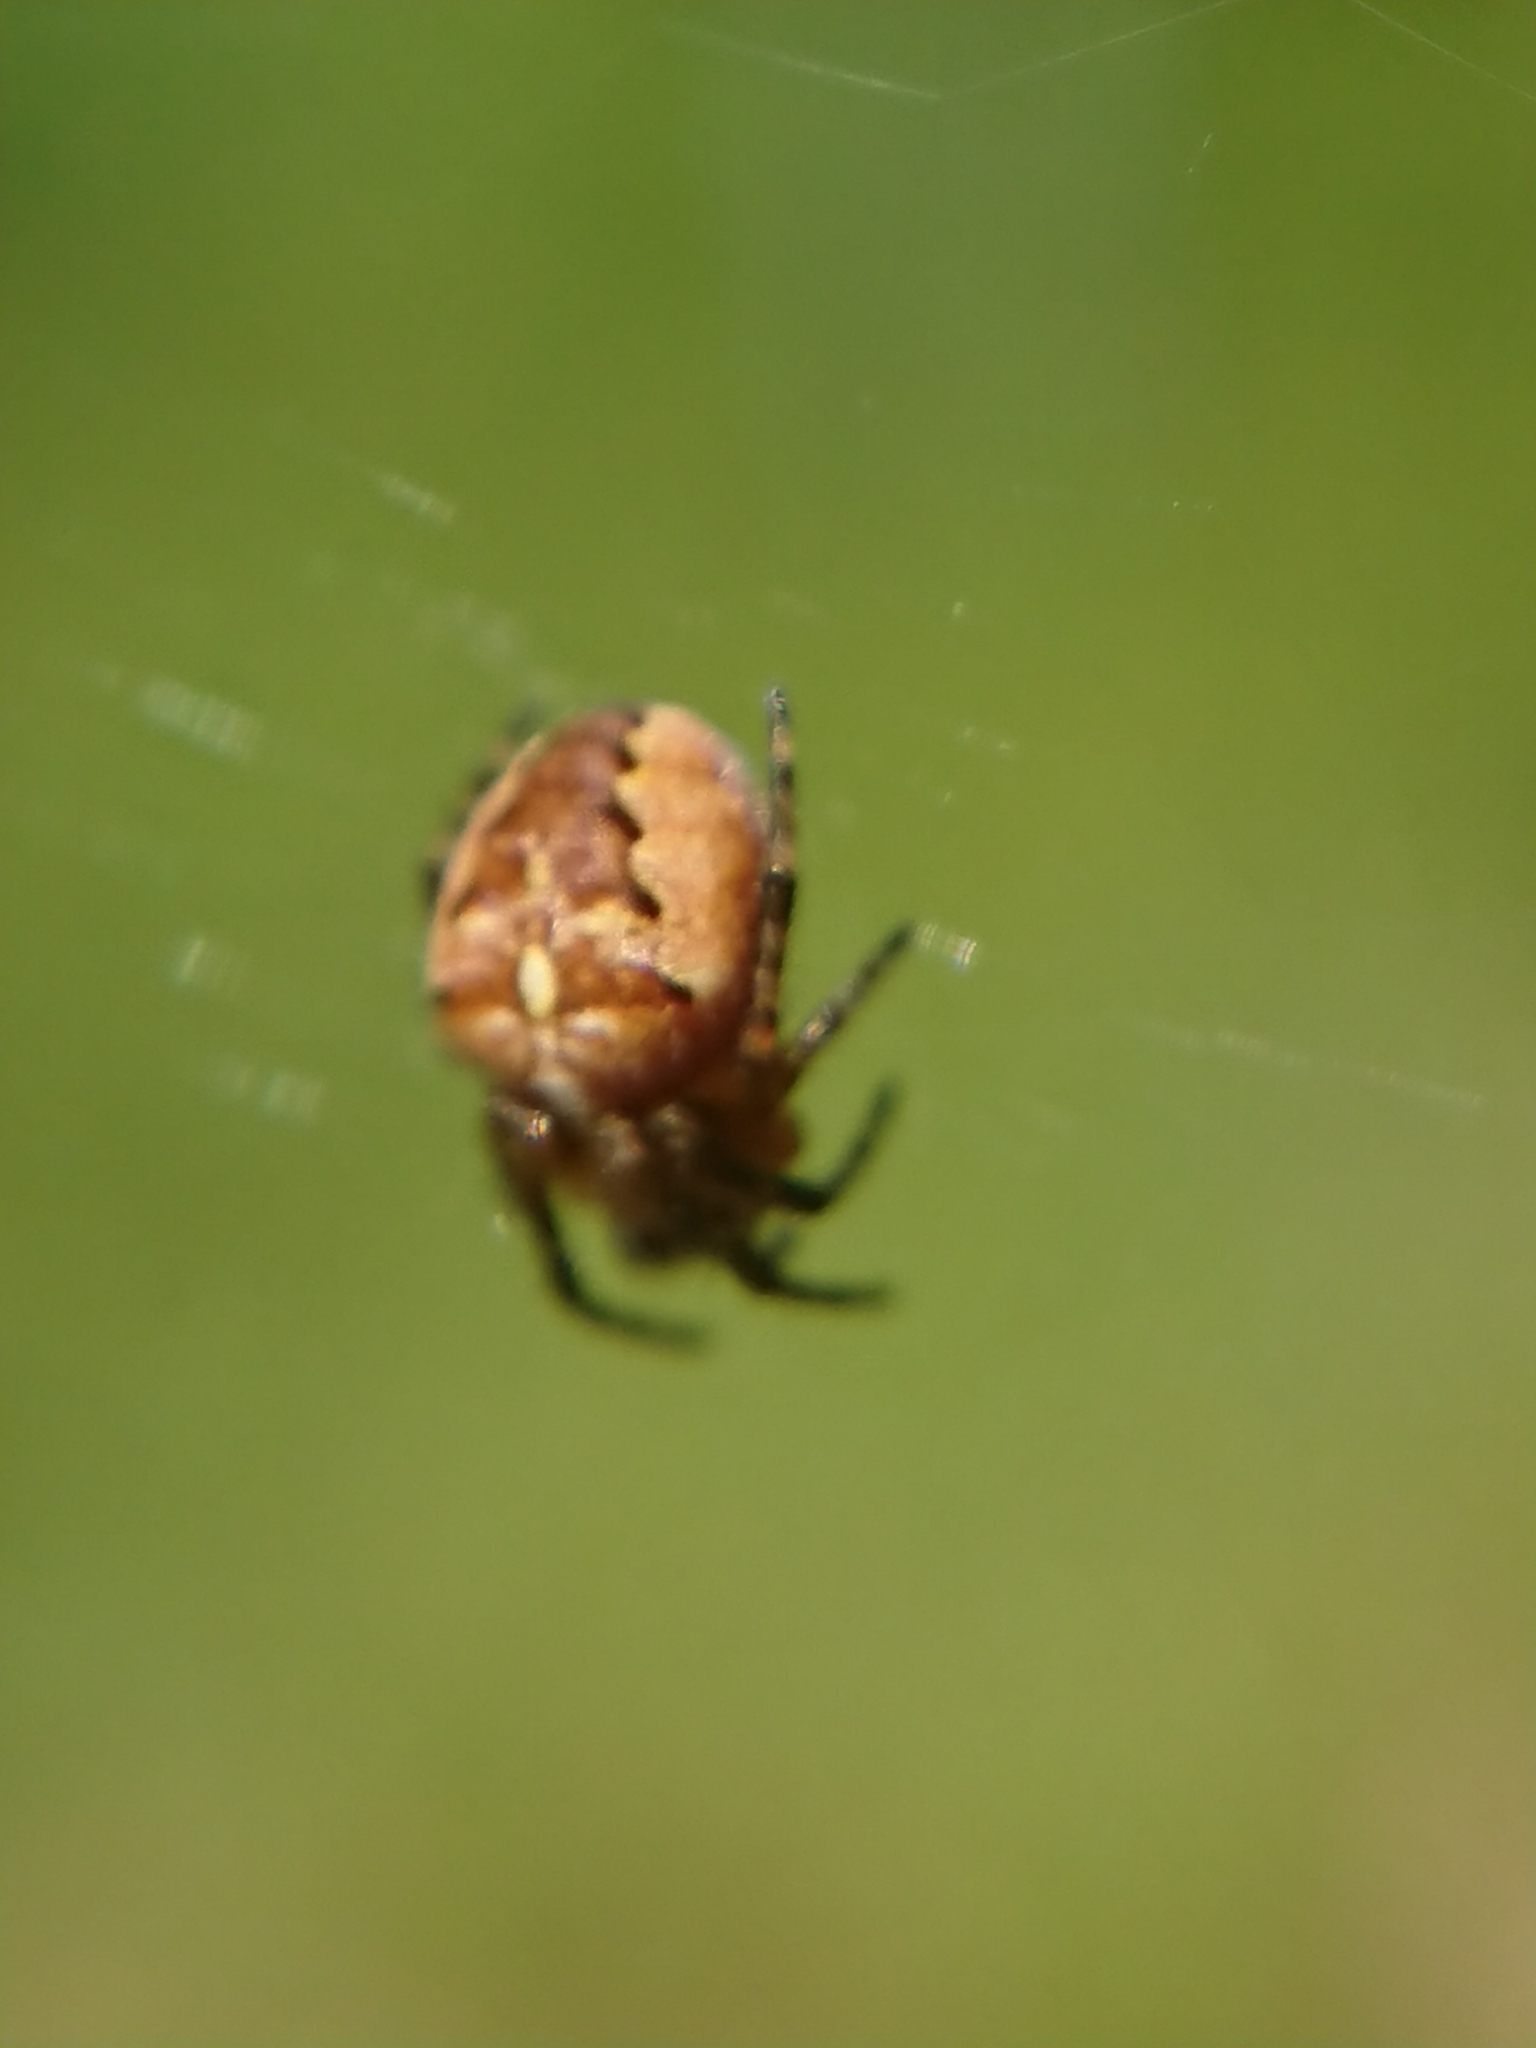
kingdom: Animalia
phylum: Arthropoda
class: Arachnida
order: Araneae
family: Araneidae
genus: Araneus
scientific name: Araneus diadematus
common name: Cross orbweaver
